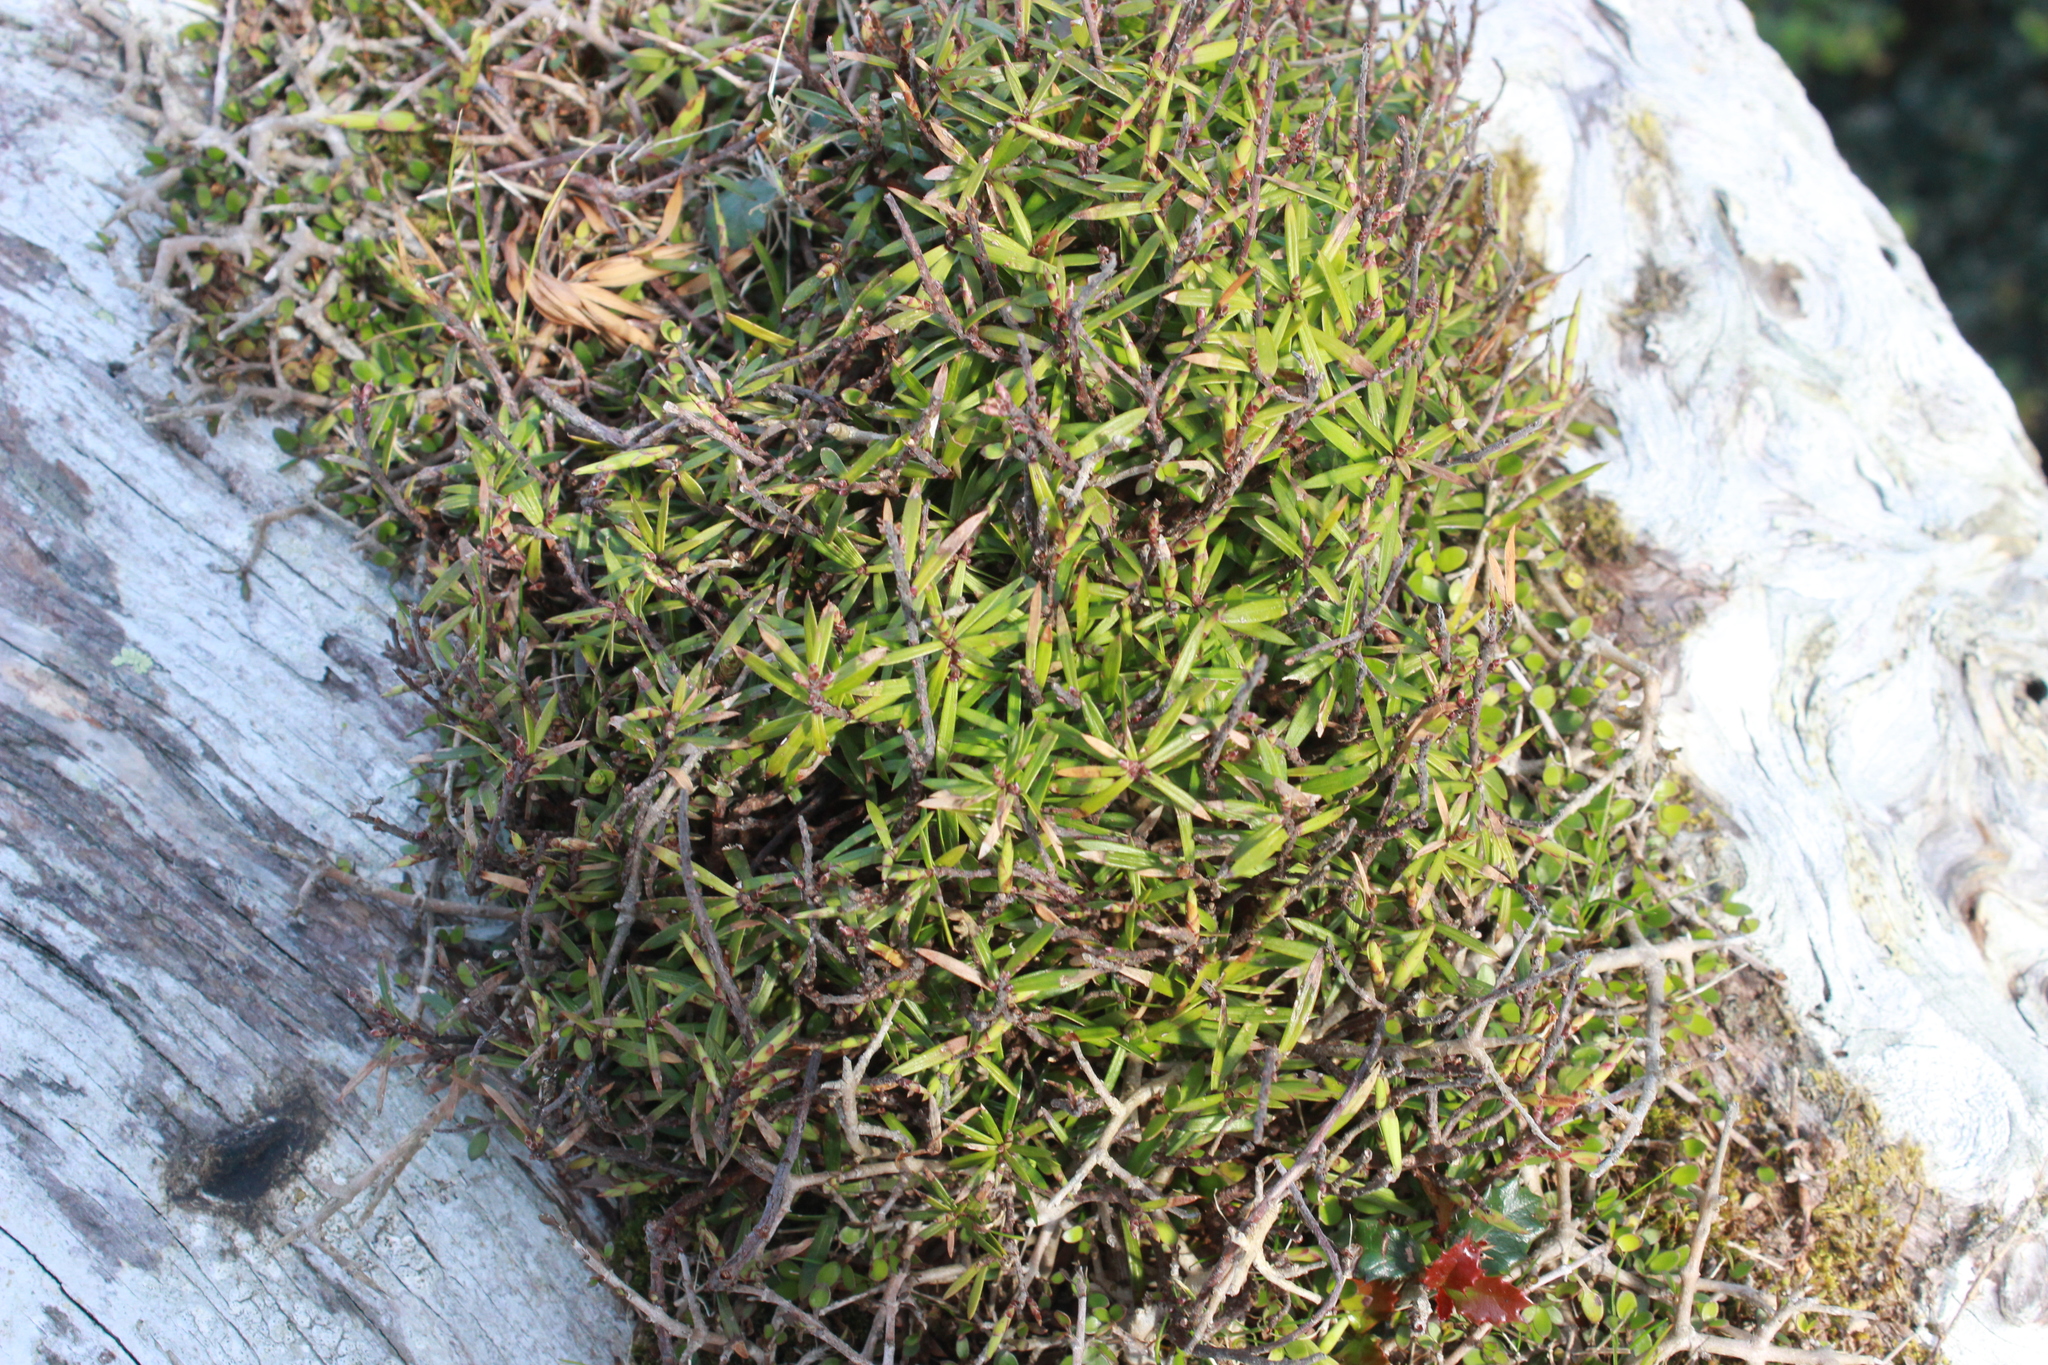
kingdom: Plantae
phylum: Tracheophyta
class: Magnoliopsida
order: Ericales
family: Ericaceae
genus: Leucopogon
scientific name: Leucopogon fasciculatus
